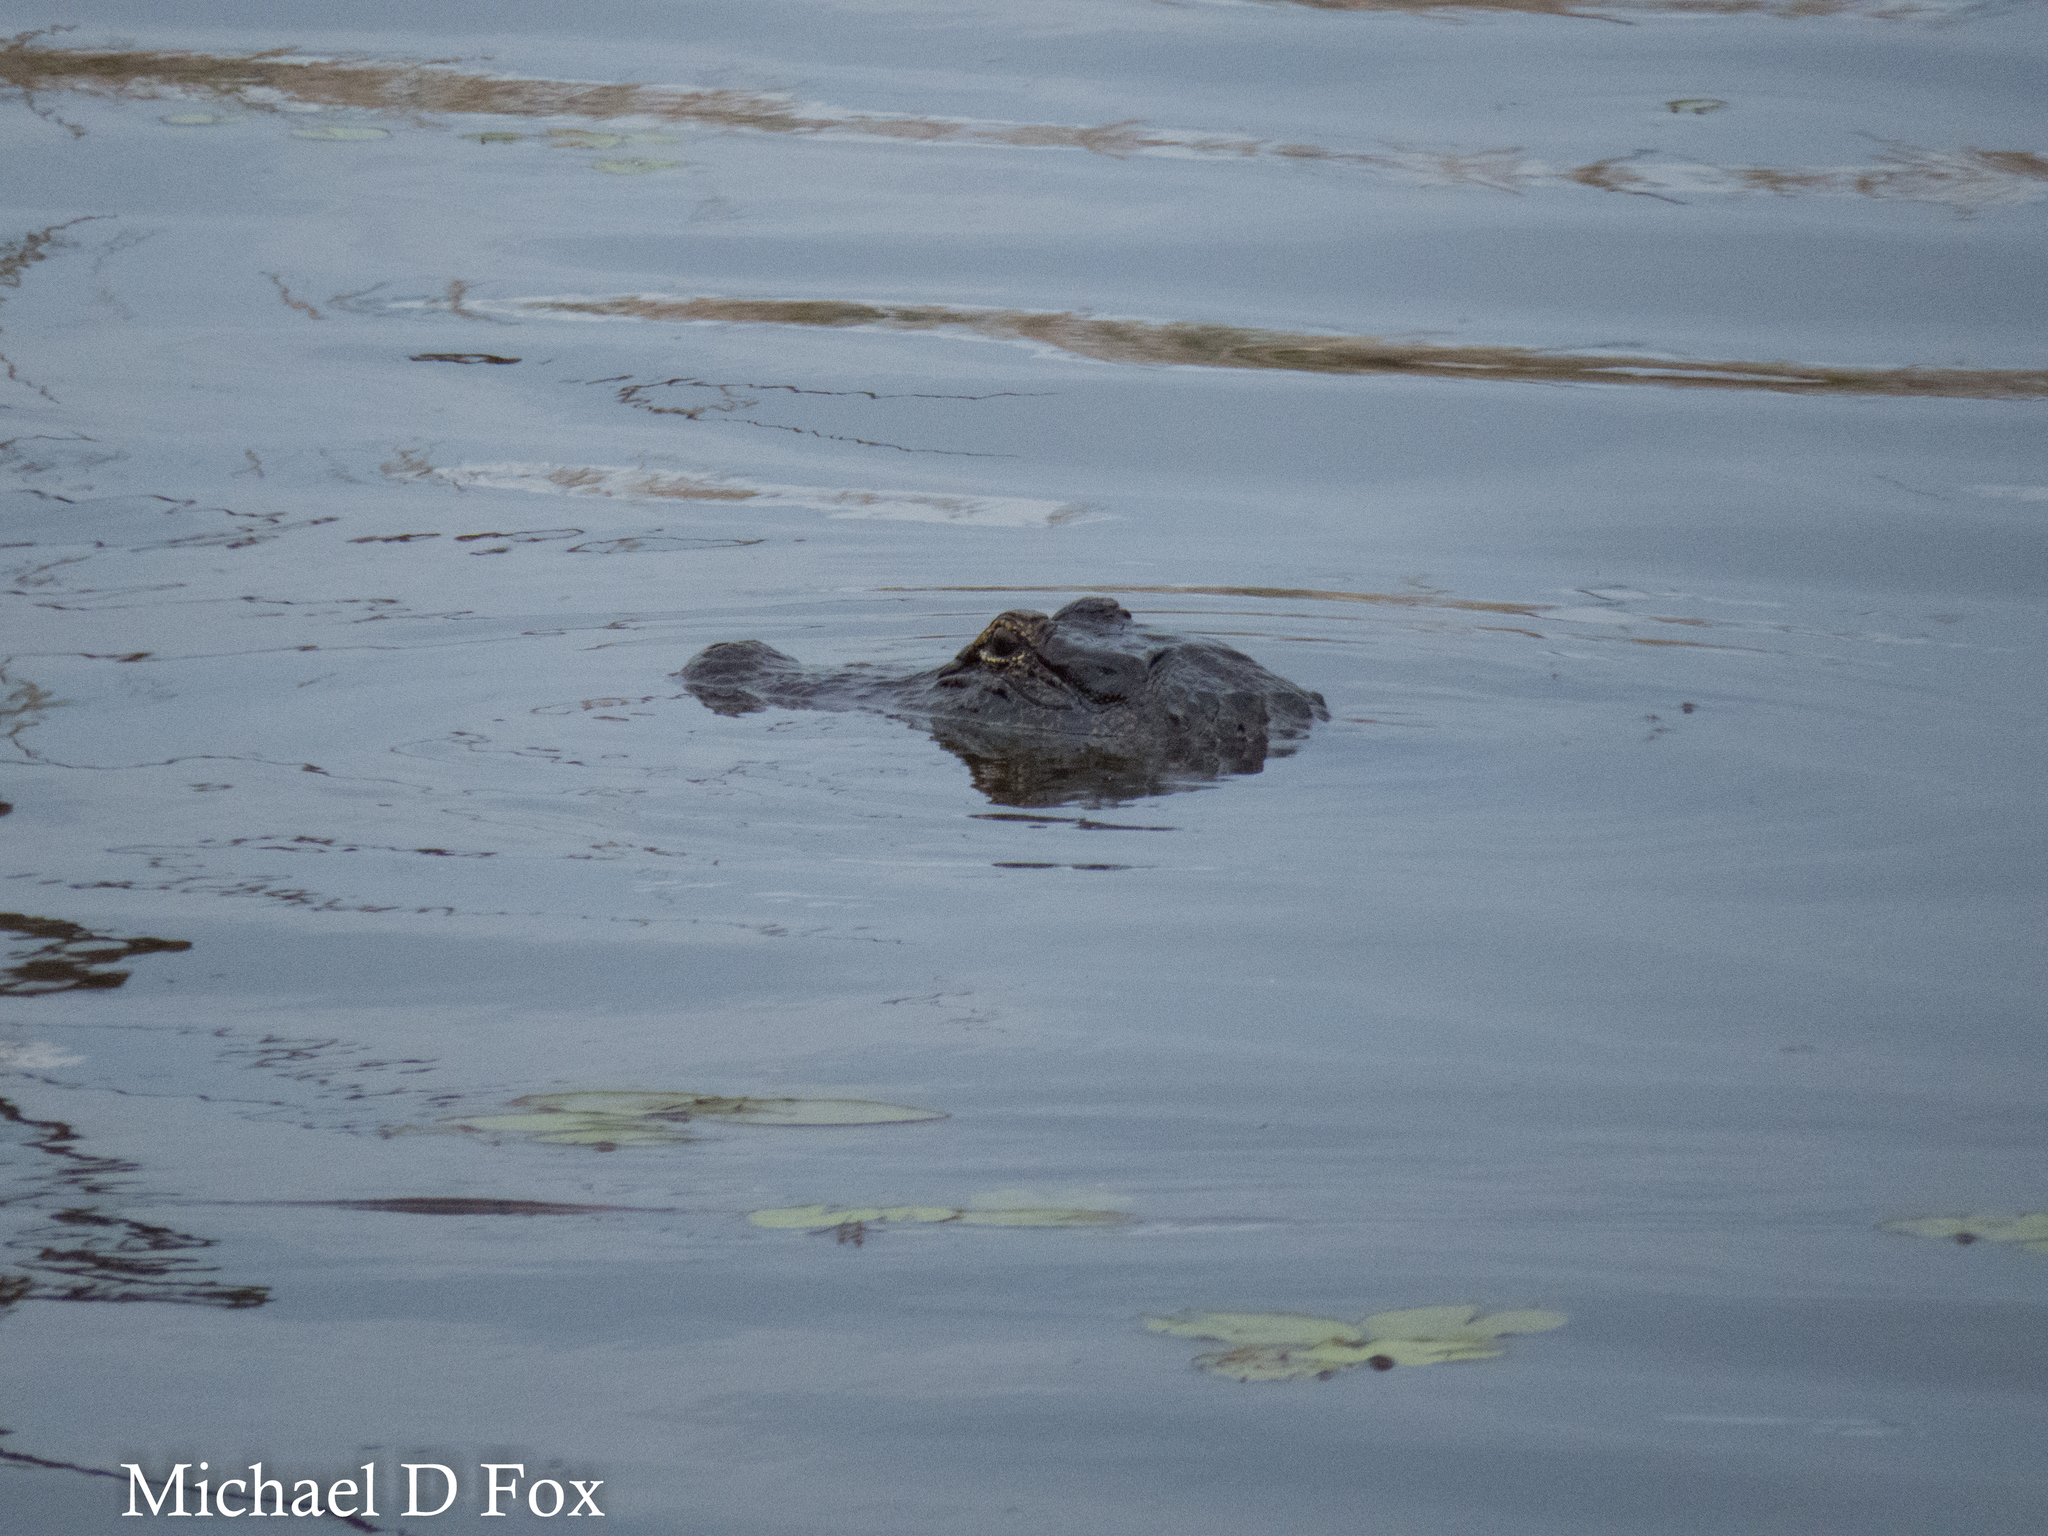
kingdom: Animalia
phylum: Chordata
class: Crocodylia
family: Alligatoridae
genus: Alligator
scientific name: Alligator mississippiensis
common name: American alligator
